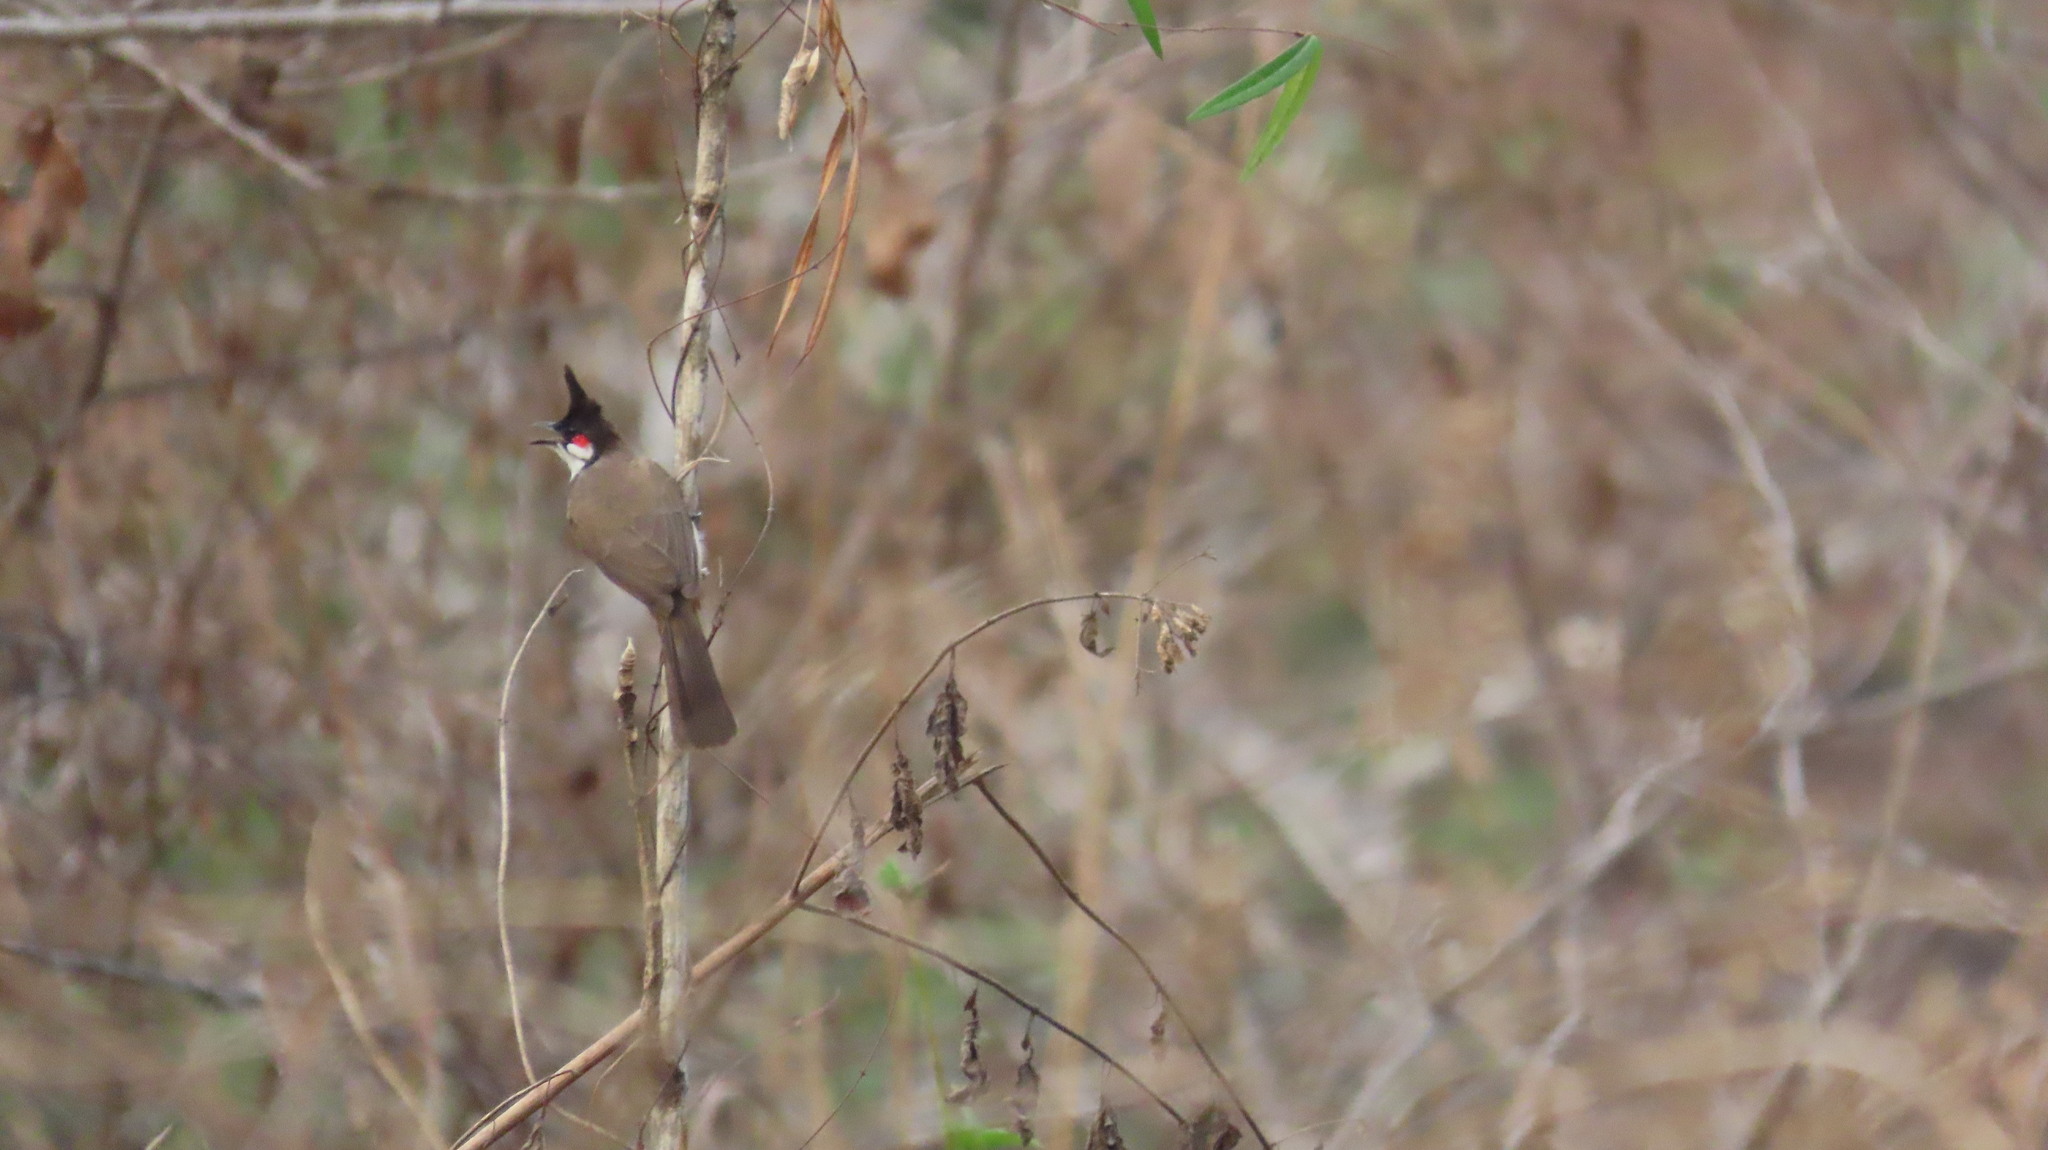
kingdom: Animalia
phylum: Chordata
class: Aves
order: Passeriformes
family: Pycnonotidae
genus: Pycnonotus
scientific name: Pycnonotus jocosus
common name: Red-whiskered bulbul
